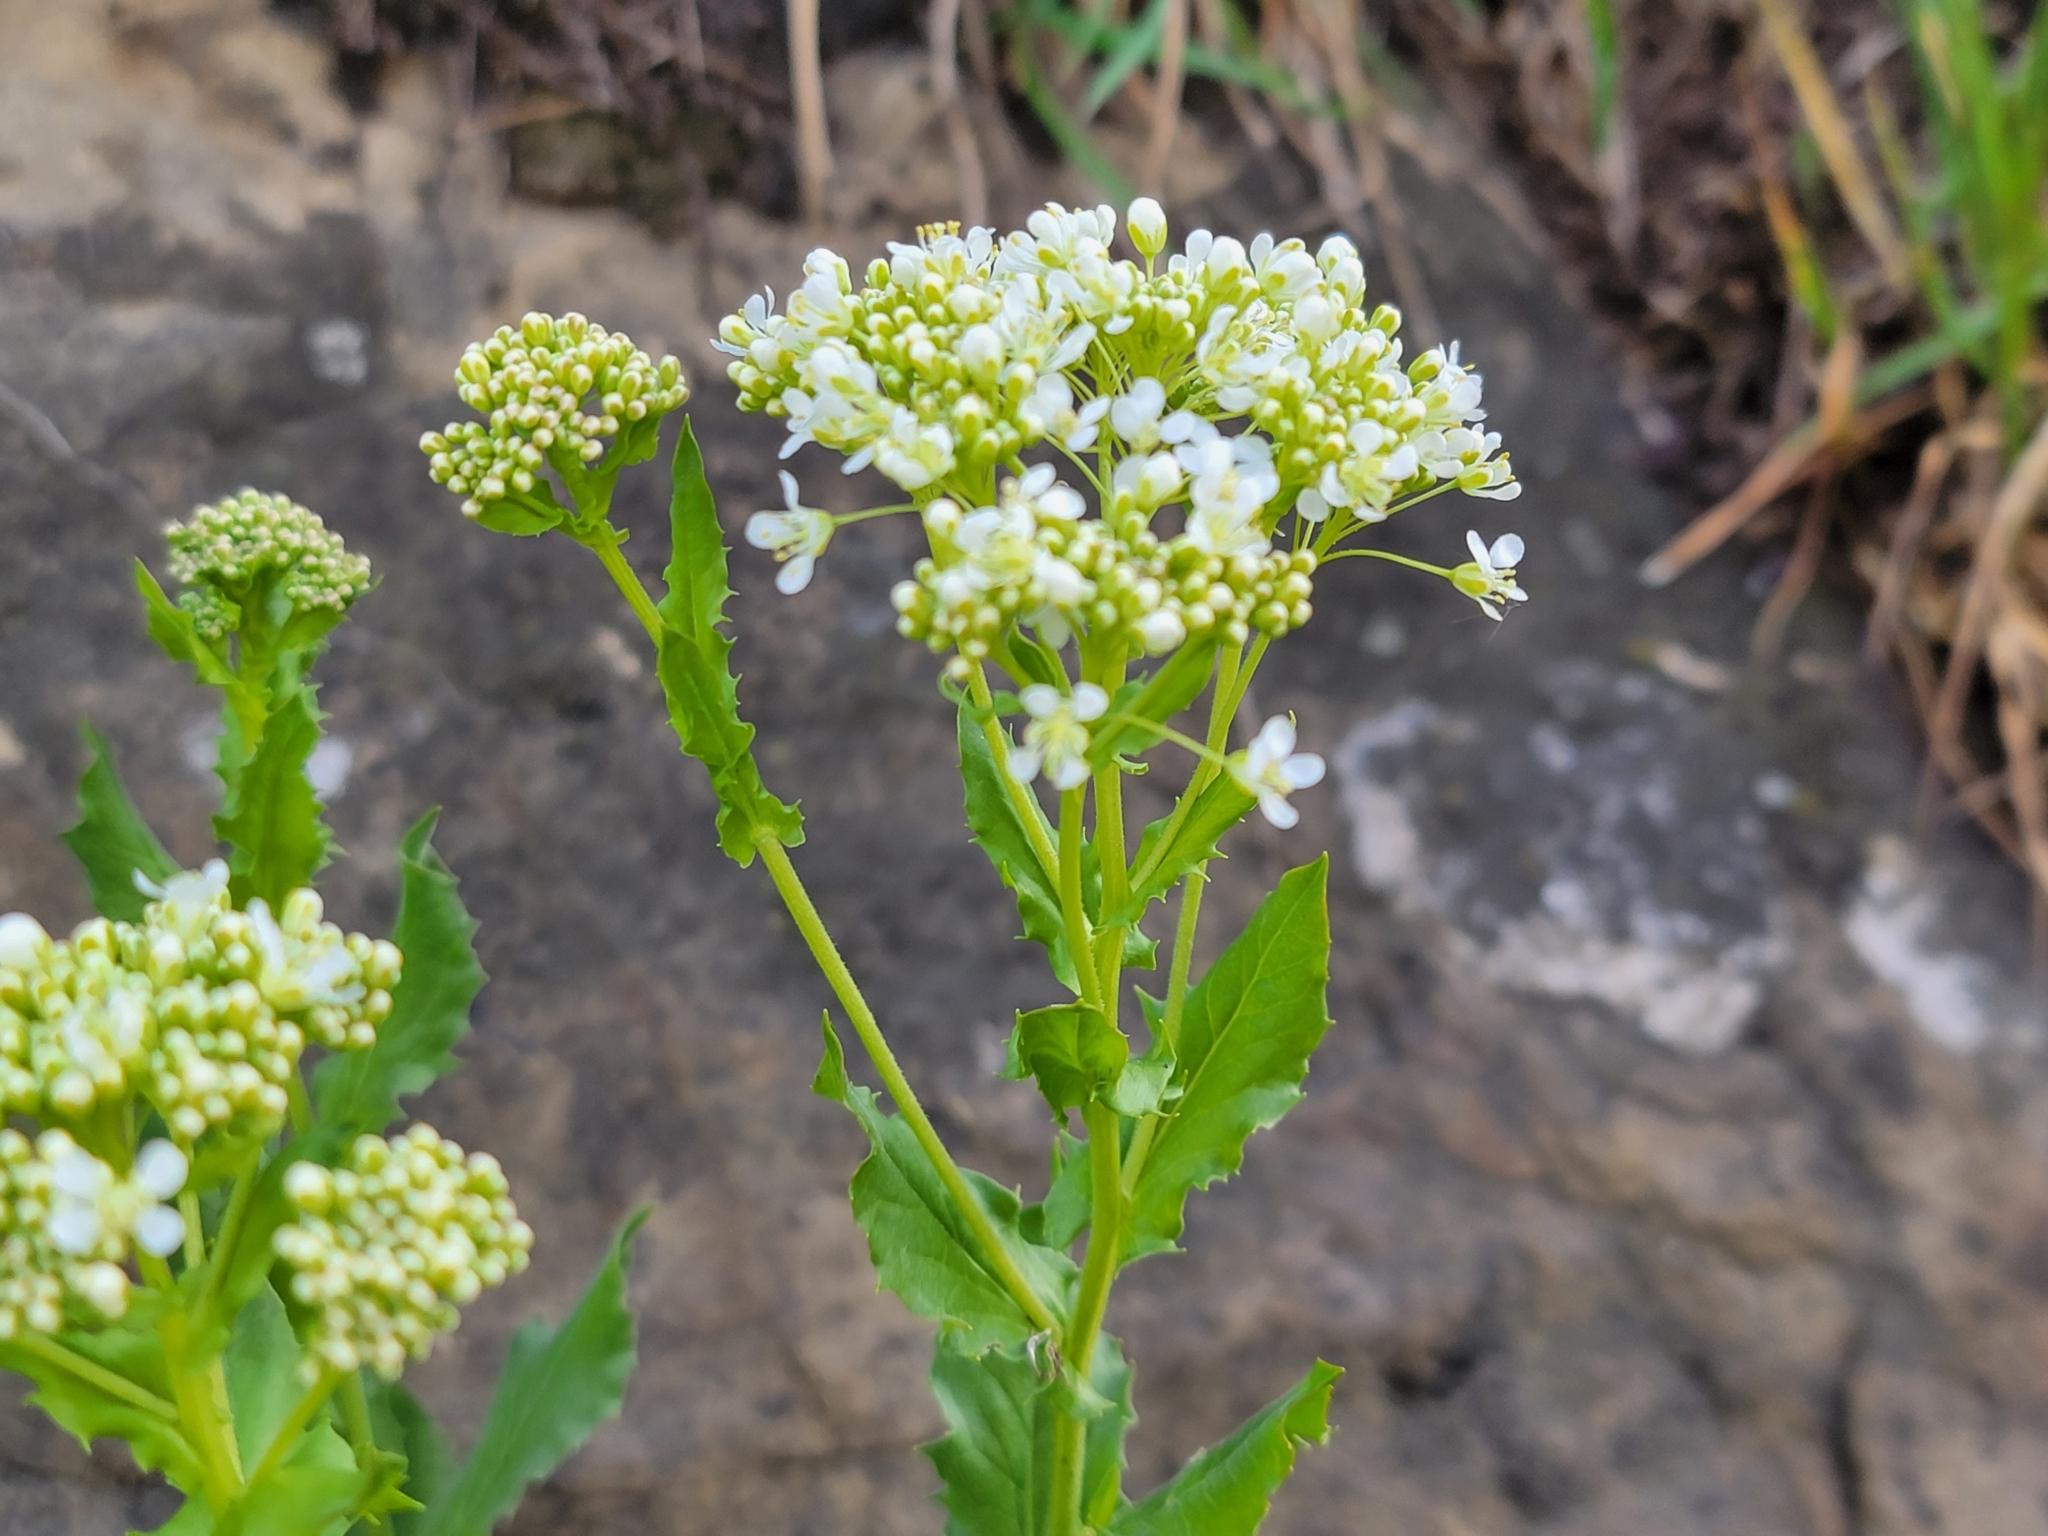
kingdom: Plantae
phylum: Tracheophyta
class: Magnoliopsida
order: Brassicales
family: Brassicaceae
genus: Lepidium
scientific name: Lepidium draba
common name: Hoary cress
